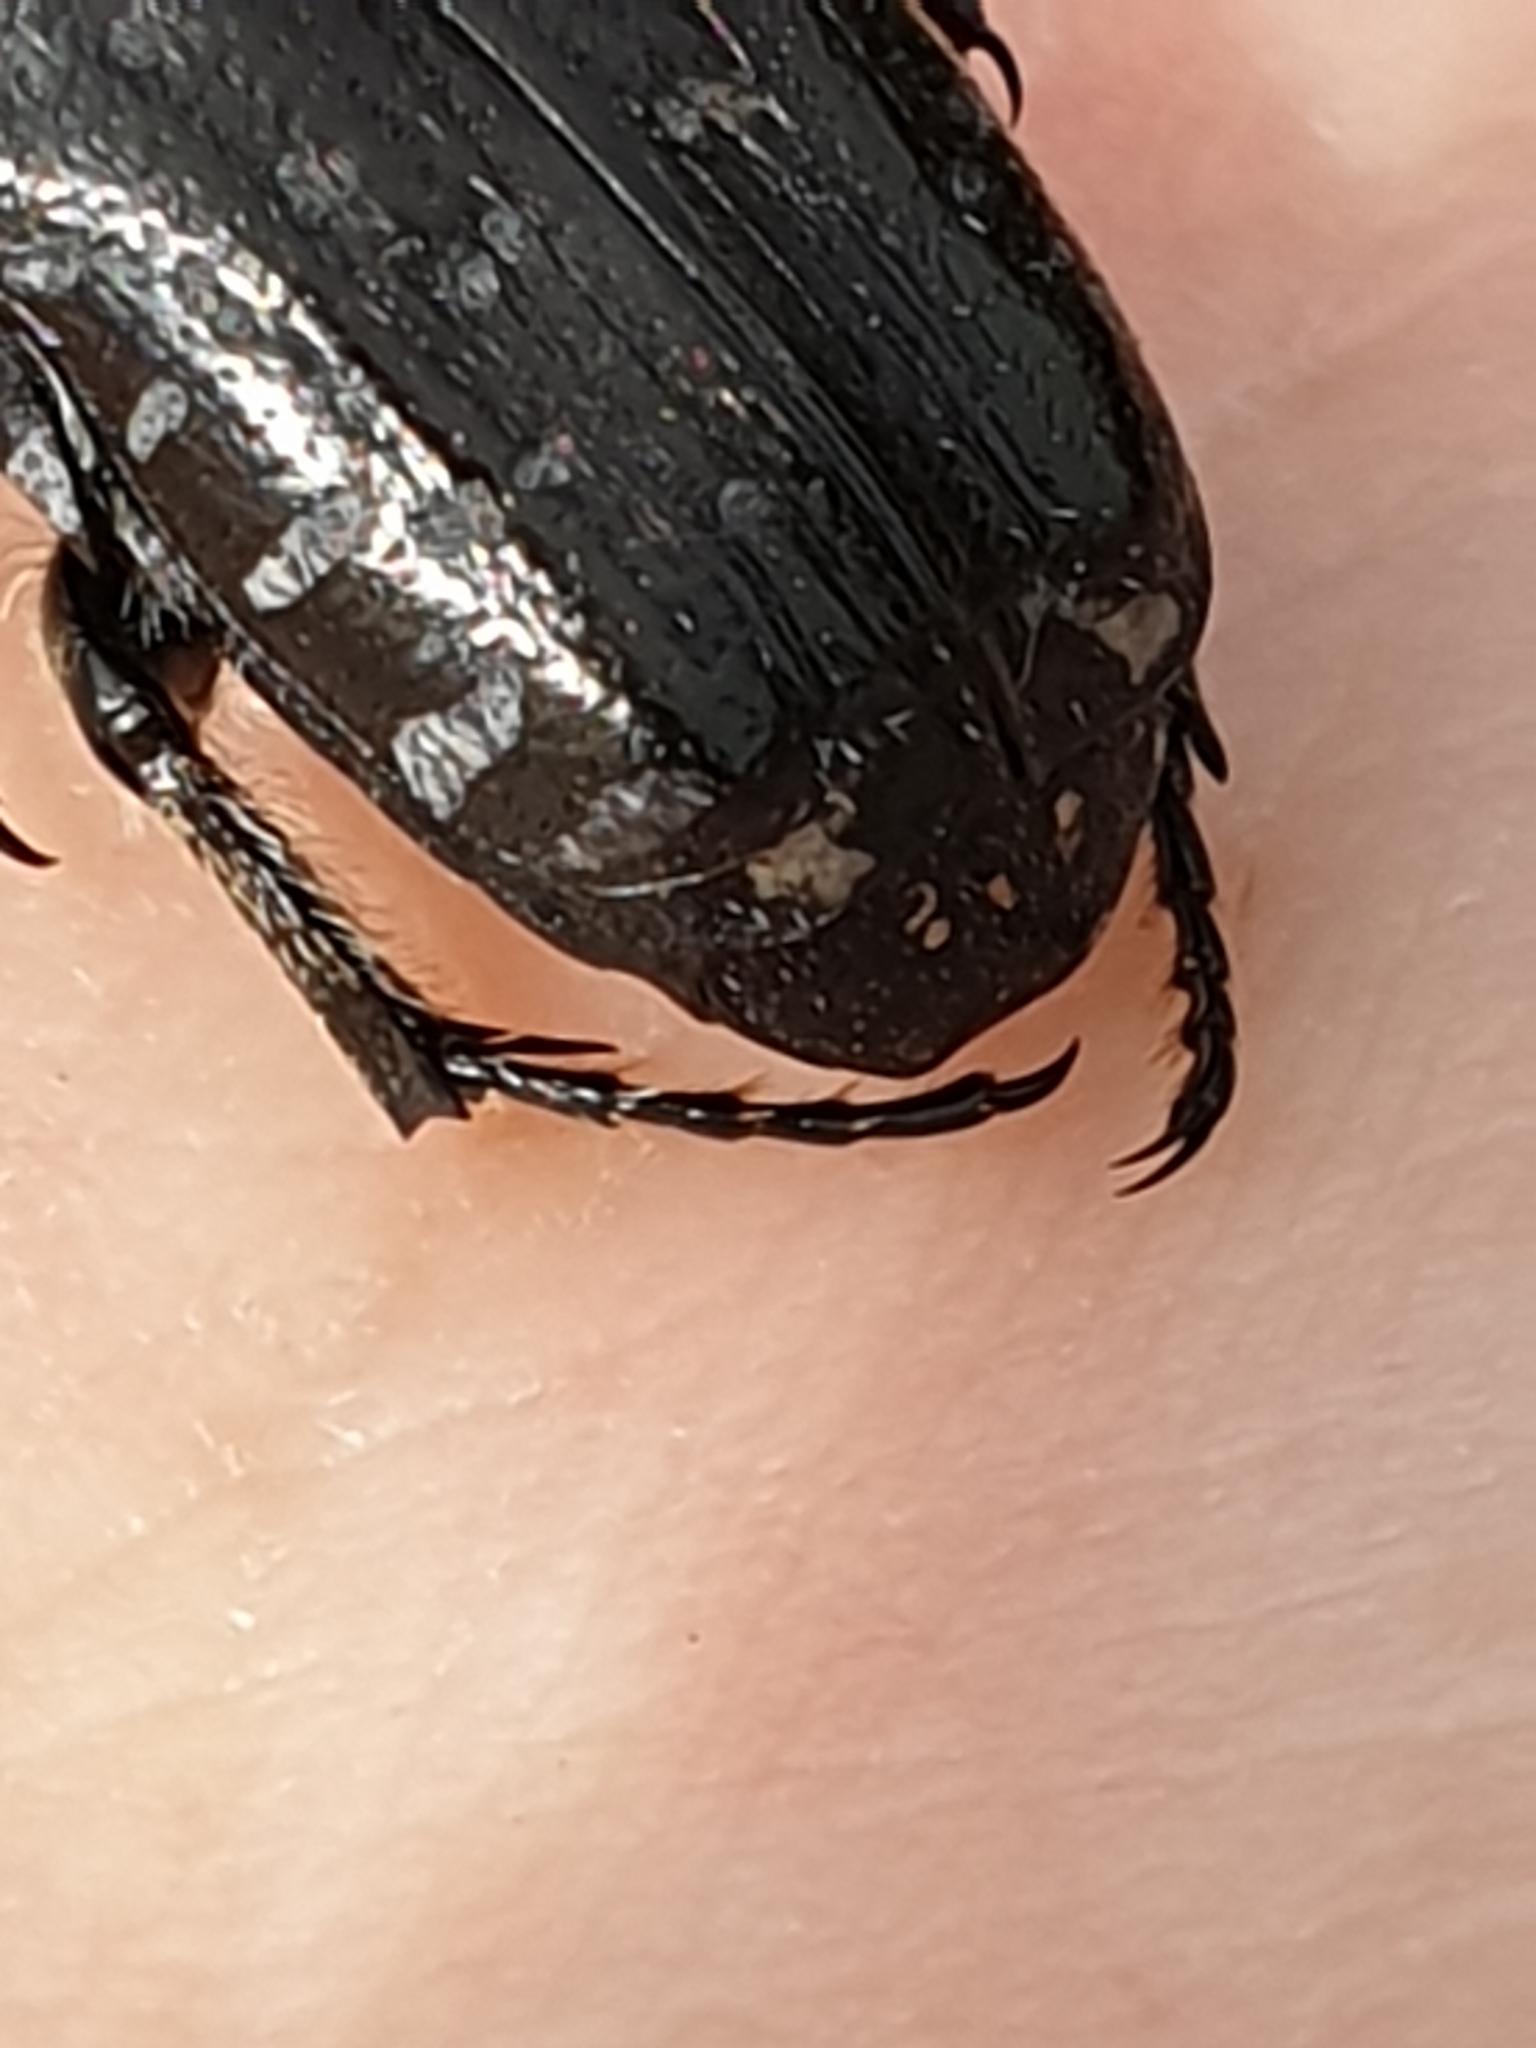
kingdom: Animalia
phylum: Arthropoda
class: Insecta
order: Coleoptera
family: Scarabaeidae
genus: Oxythyrea
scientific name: Oxythyrea funesta
